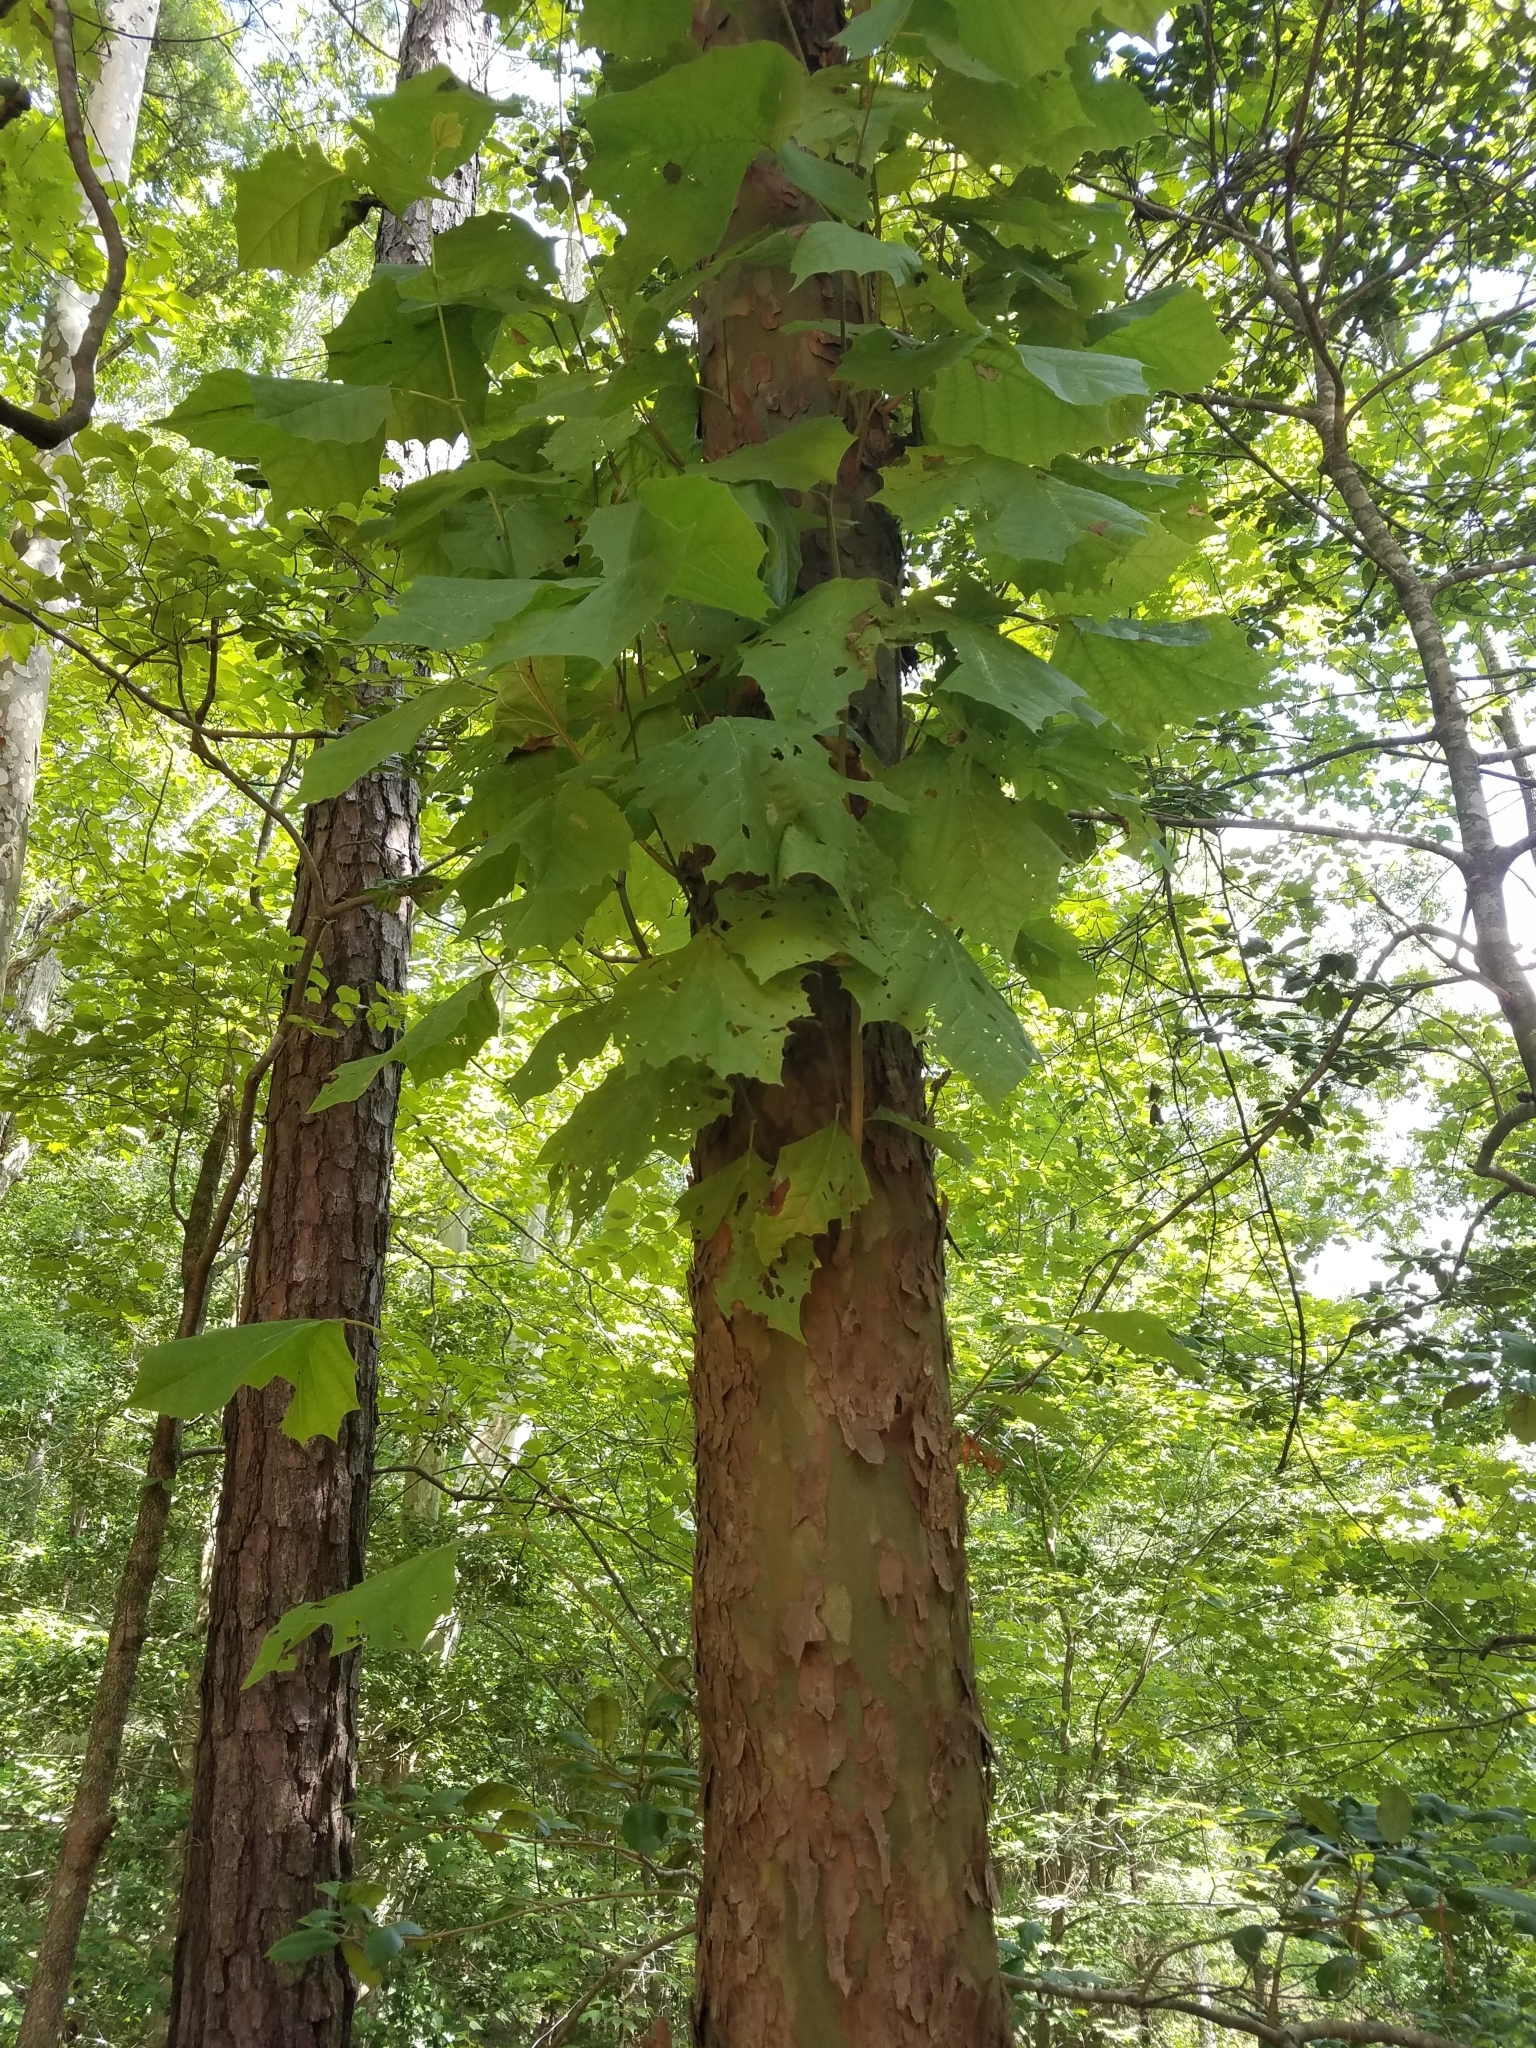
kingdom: Plantae
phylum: Tracheophyta
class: Magnoliopsida
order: Proteales
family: Platanaceae
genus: Platanus
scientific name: Platanus occidentalis
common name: American sycamore
